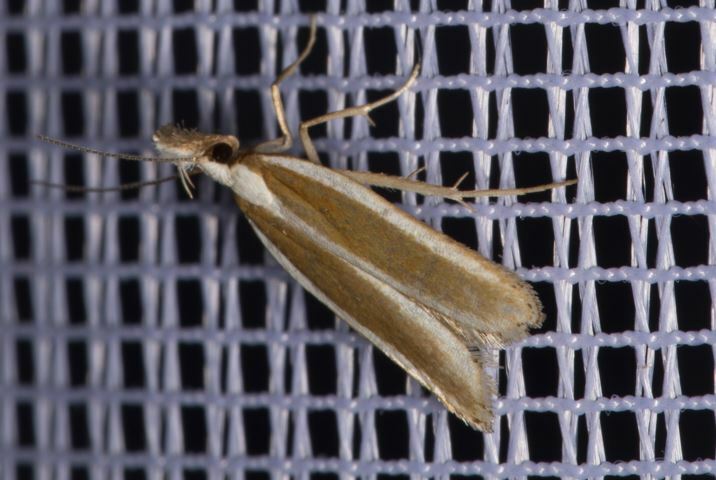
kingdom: Animalia
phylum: Arthropoda
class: Insecta
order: Lepidoptera
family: Gelechiidae
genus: Dichomeris
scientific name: Dichomeris marginella
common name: Juniper webworm
